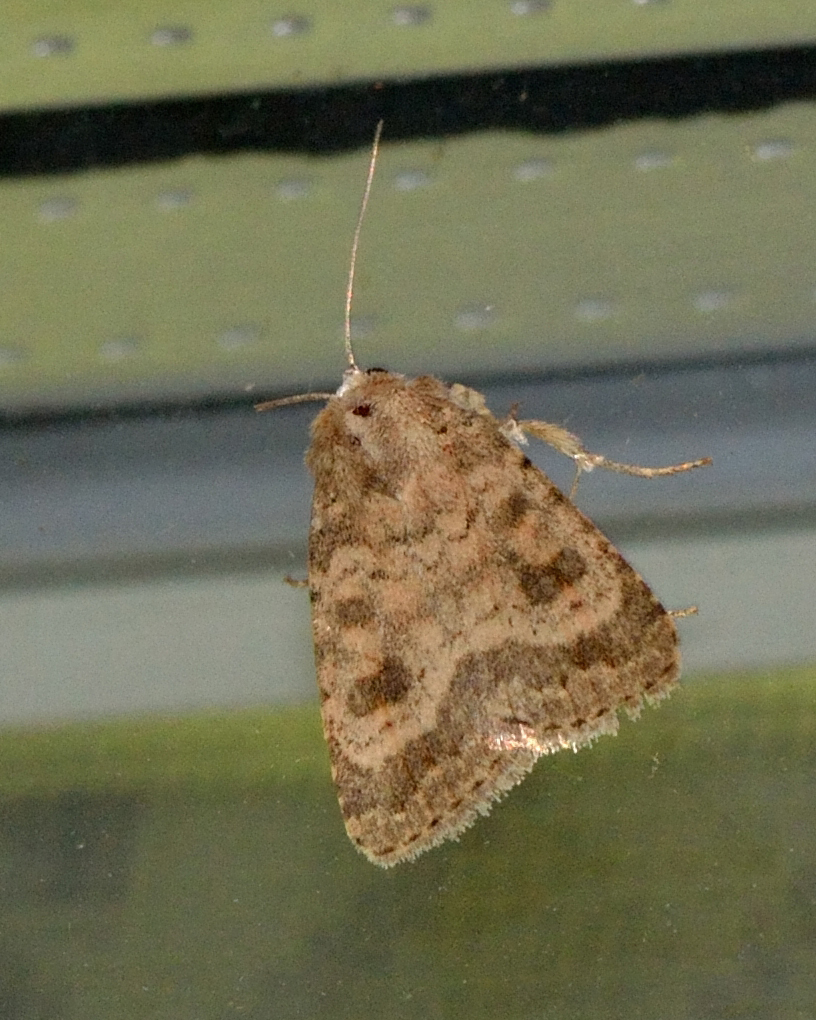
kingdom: Animalia
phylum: Arthropoda
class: Insecta
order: Lepidoptera
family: Noctuidae
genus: Caradrina
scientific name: Caradrina morpheus
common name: Mottled rustic
